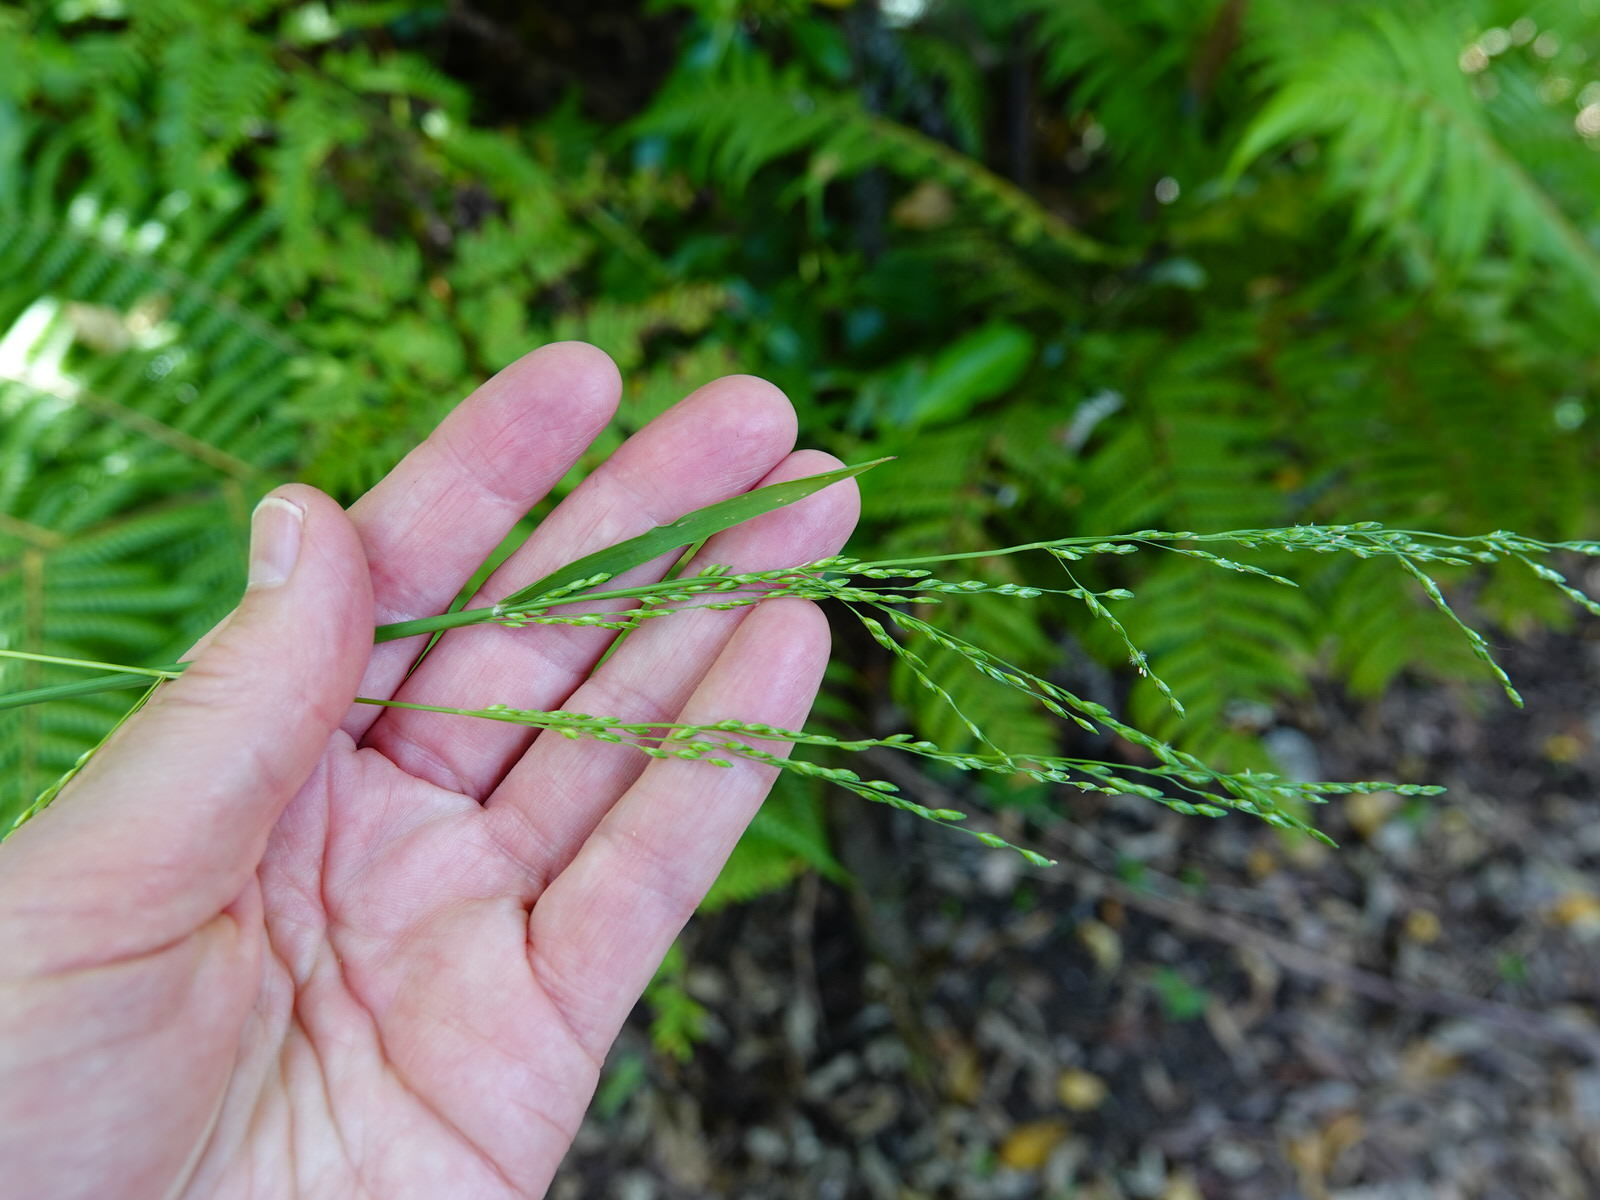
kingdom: Plantae
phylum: Tracheophyta
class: Liliopsida
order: Poales
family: Poaceae
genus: Ehrharta
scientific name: Ehrharta erecta
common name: Panic veldtgrass
